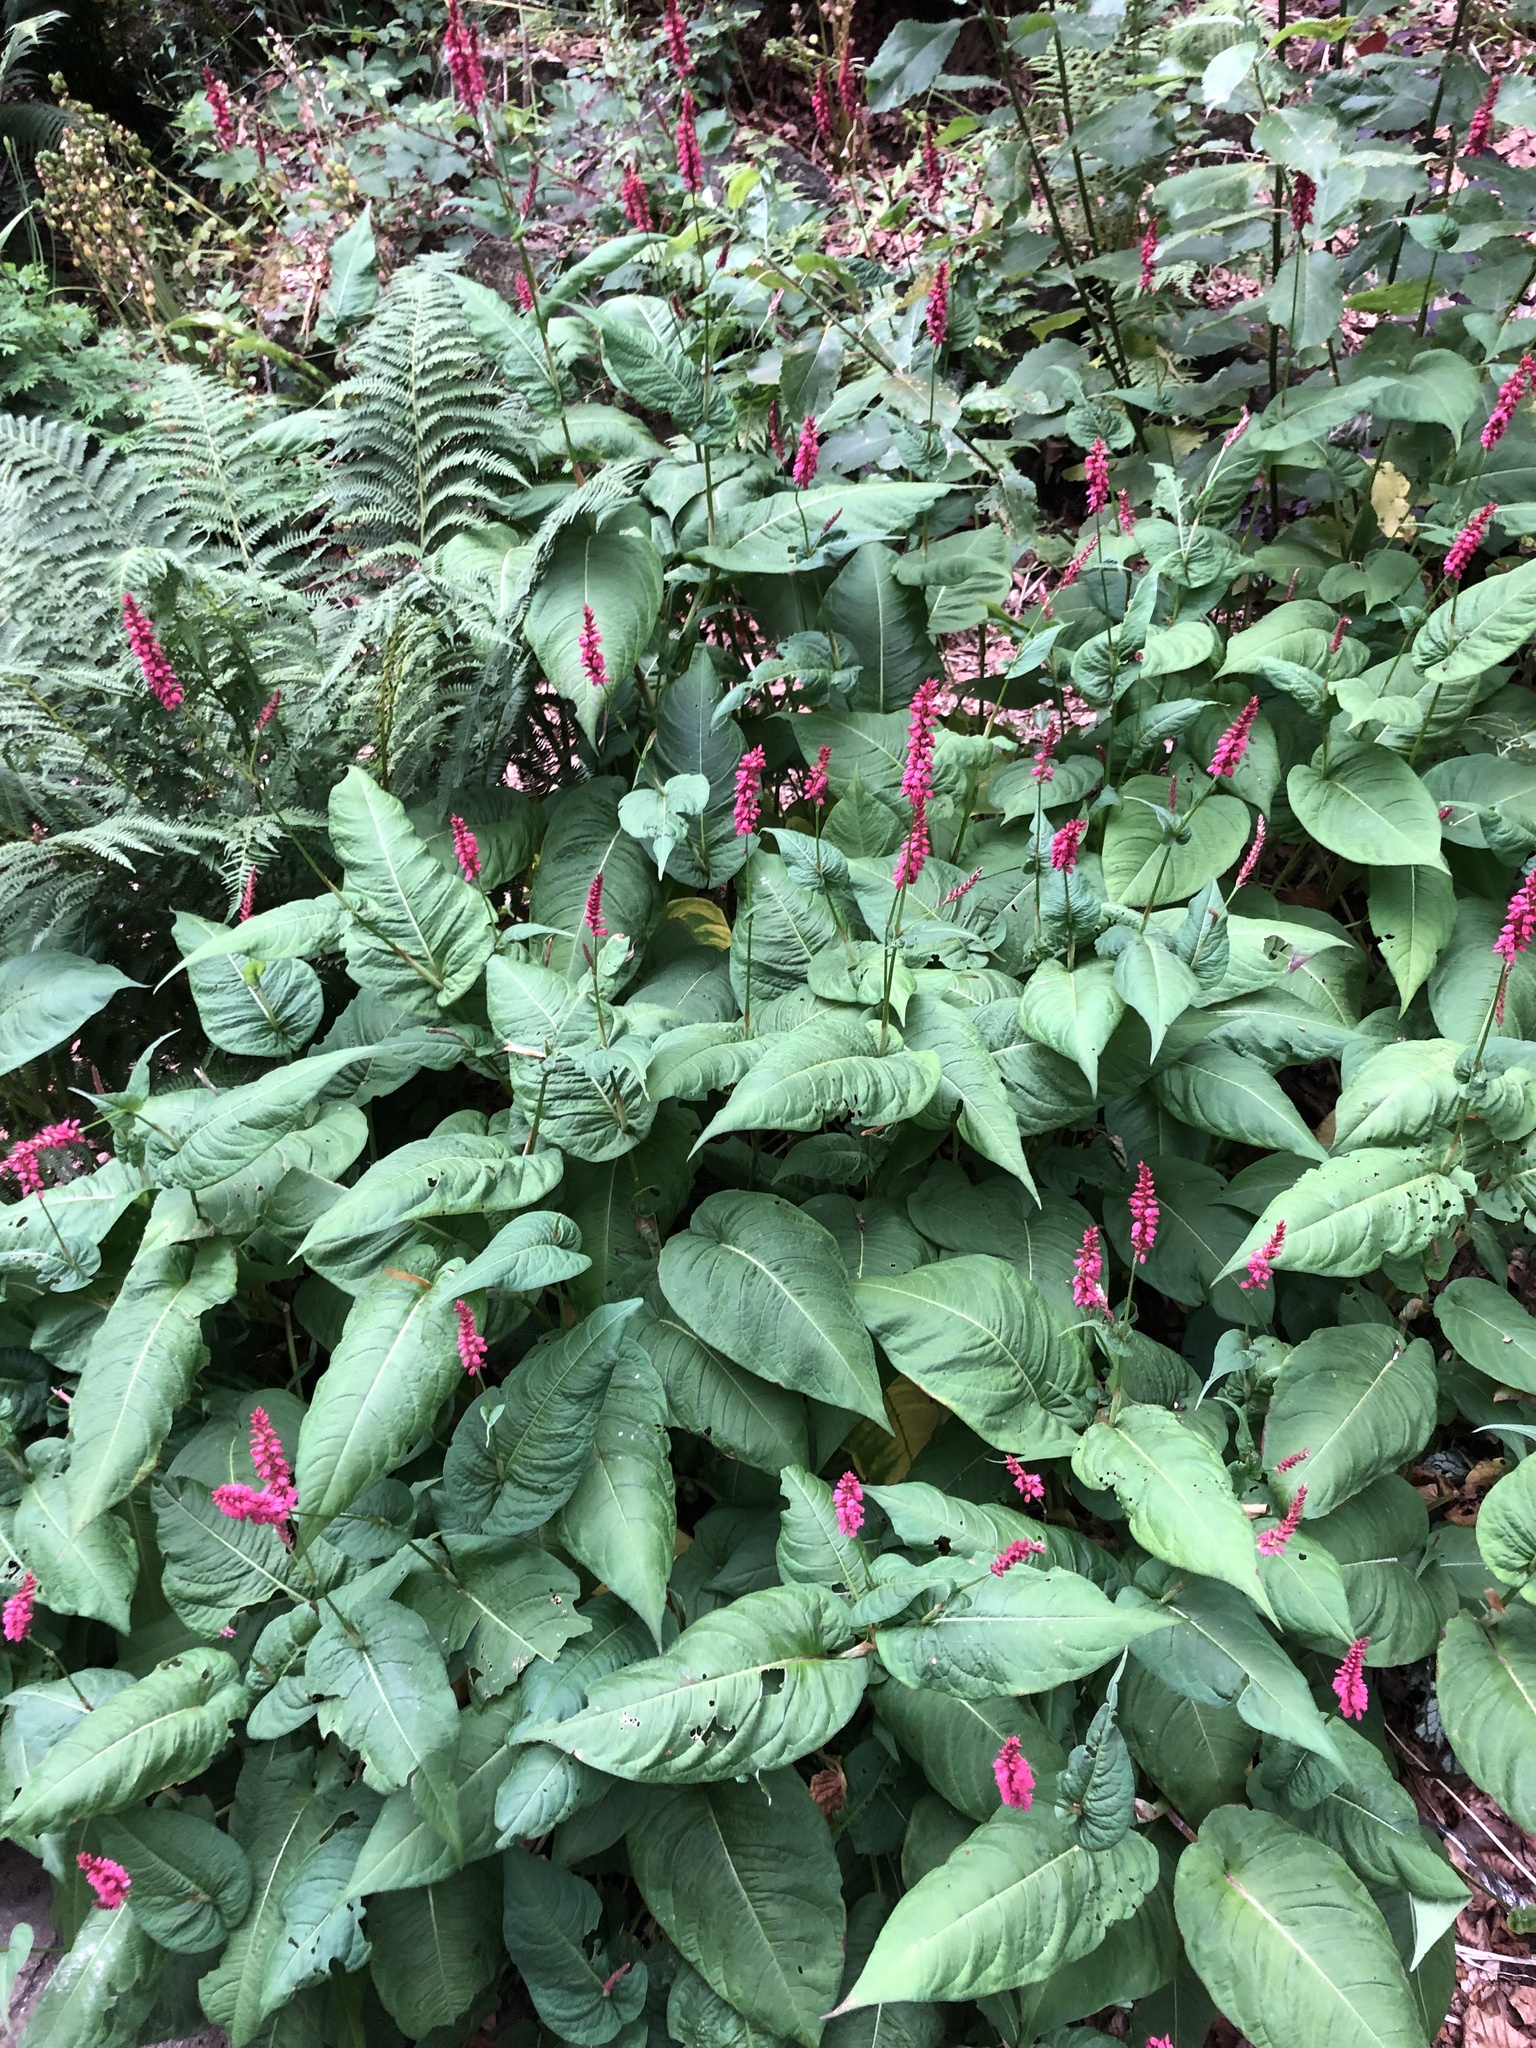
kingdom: Plantae
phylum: Tracheophyta
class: Magnoliopsida
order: Caryophyllales
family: Polygonaceae
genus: Bistorta
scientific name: Bistorta amplexicaulis
